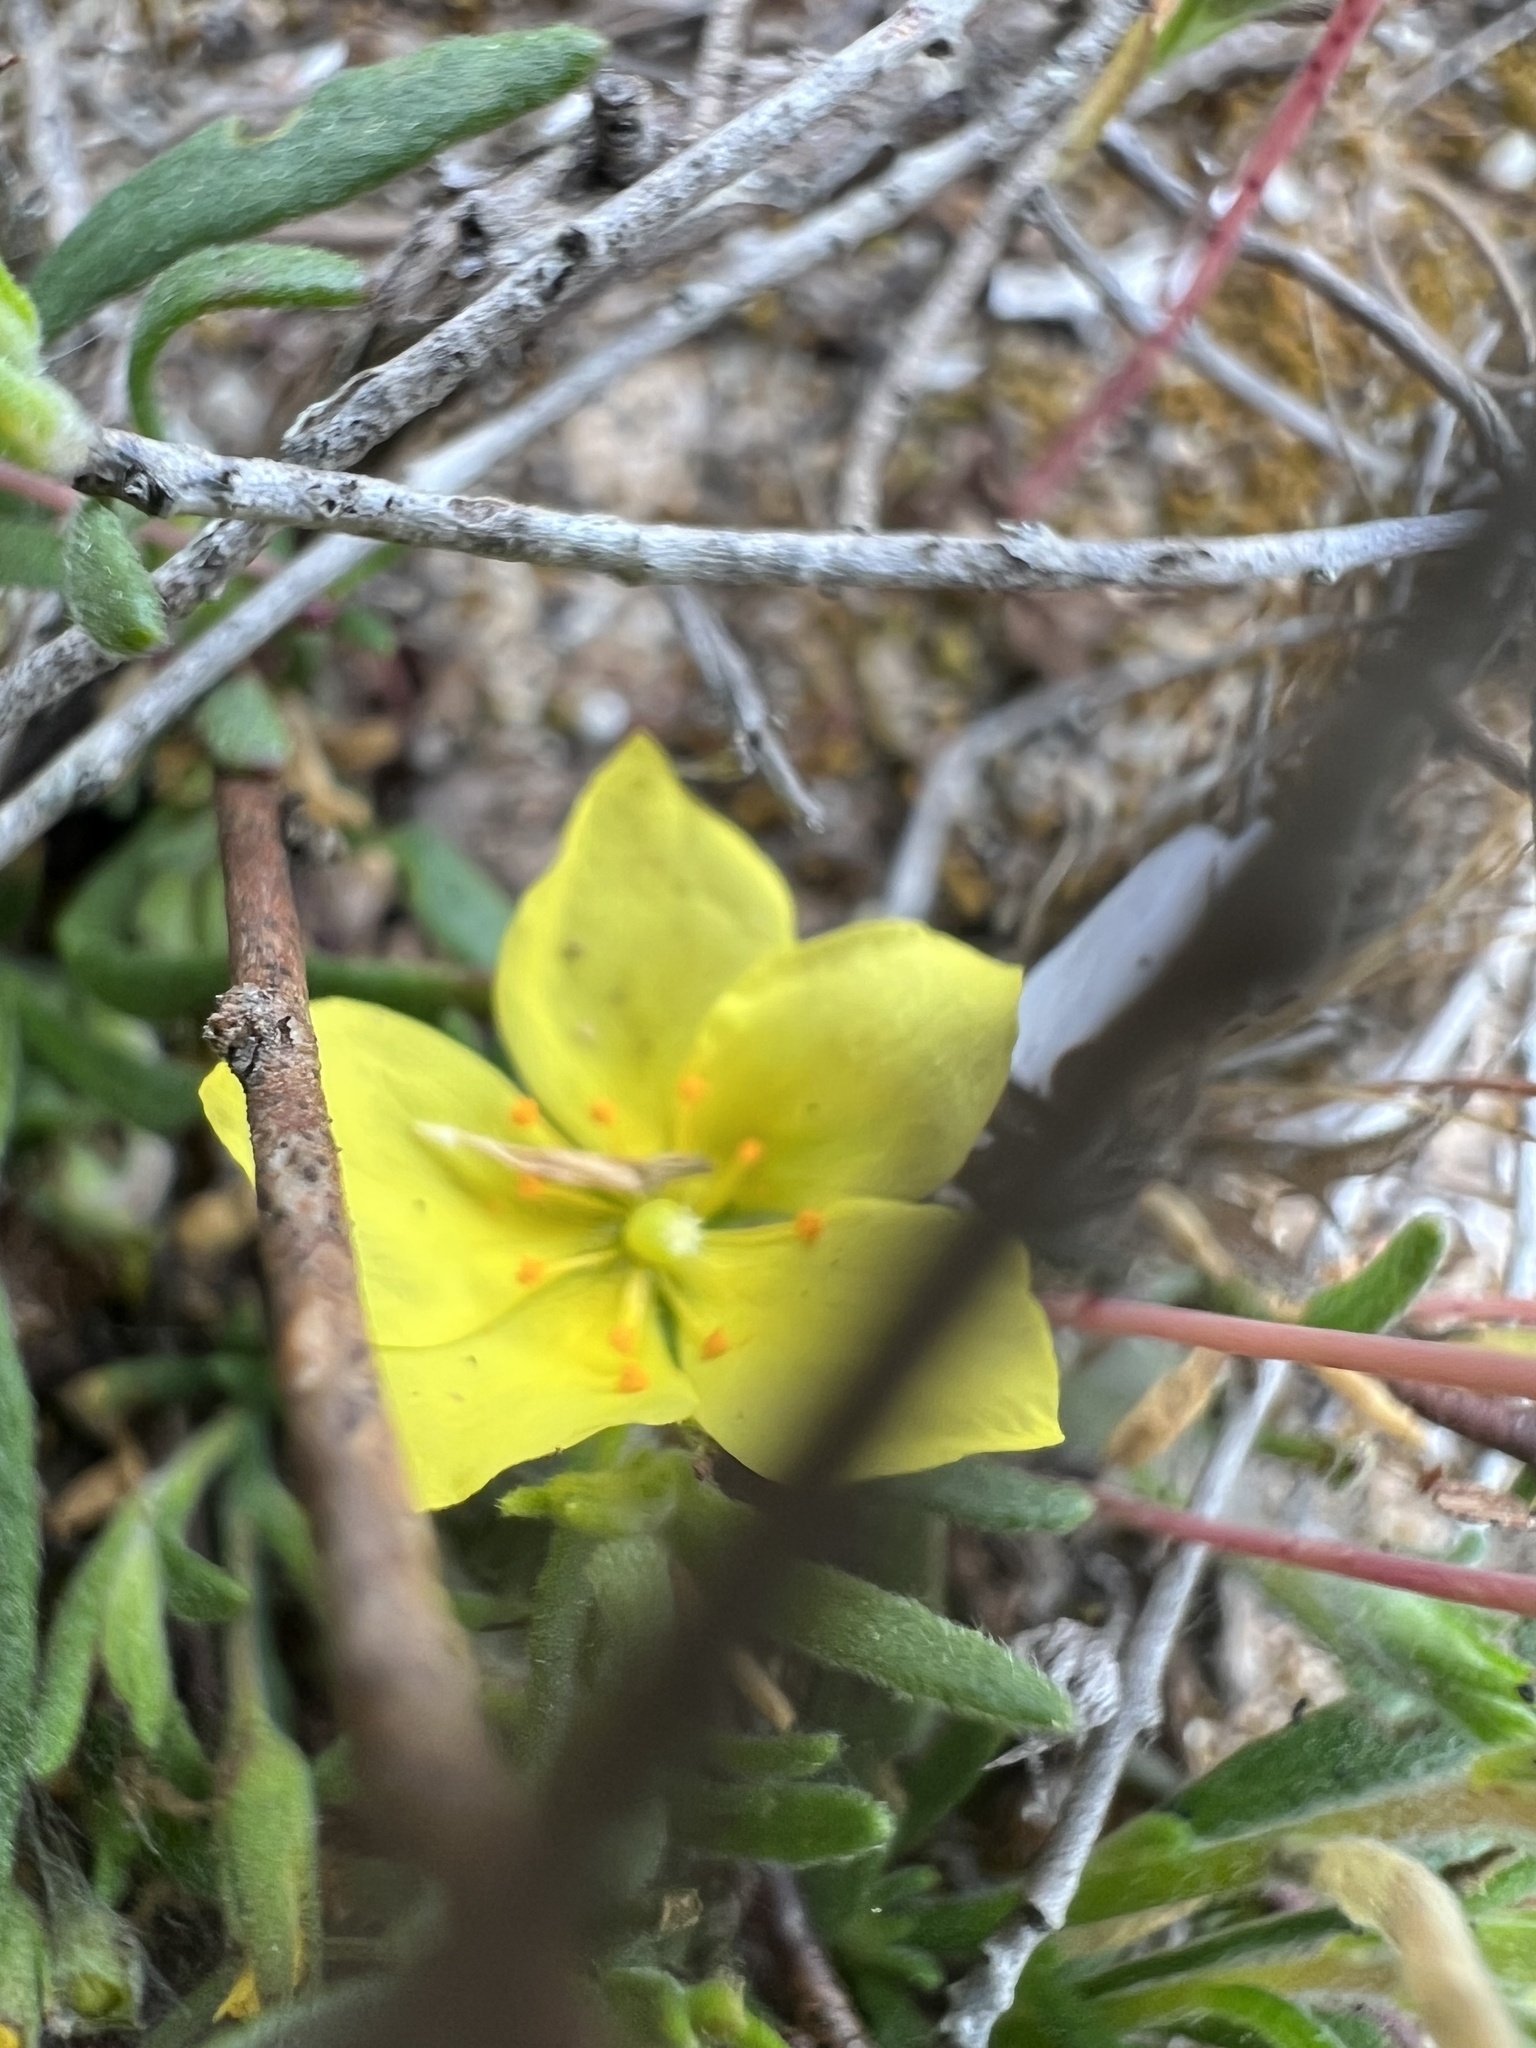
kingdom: Plantae
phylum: Tracheophyta
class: Magnoliopsida
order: Malvales
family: Cistaceae
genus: Crocanthemum
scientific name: Crocanthemum scoparium
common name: Broom-rose
